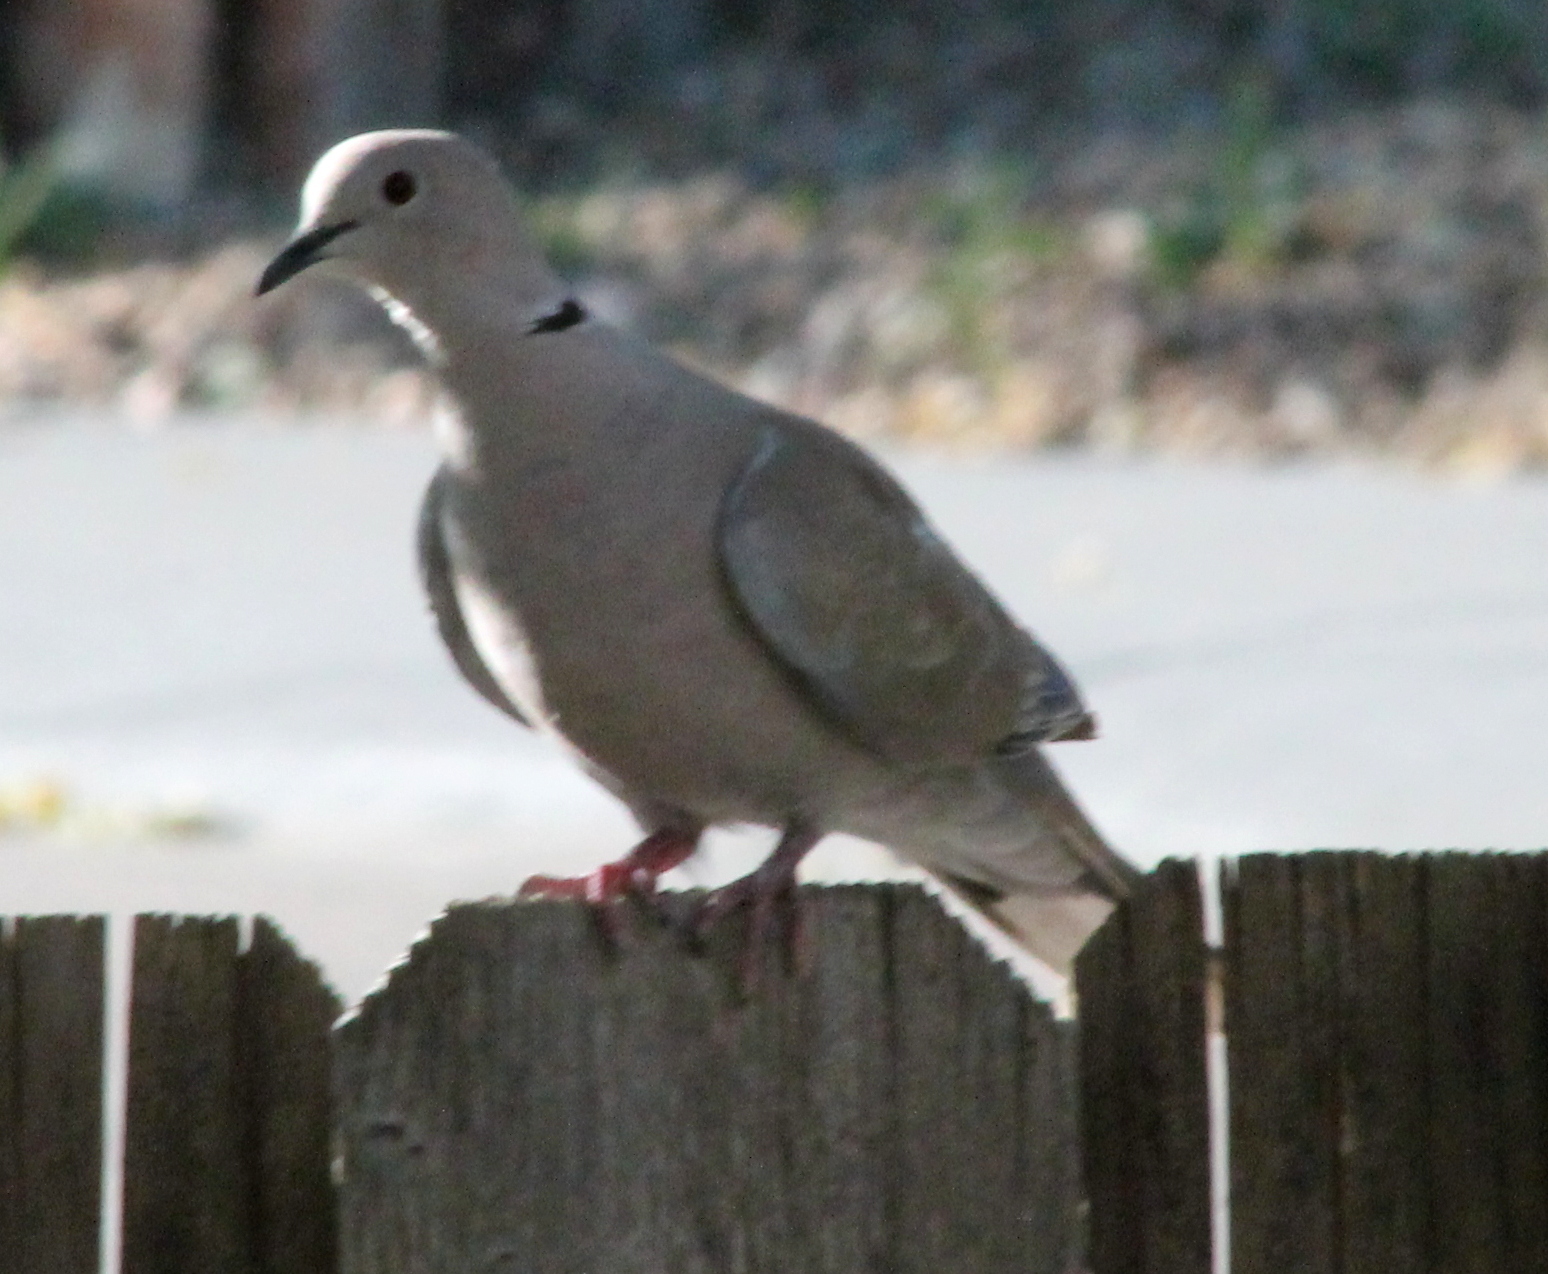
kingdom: Animalia
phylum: Chordata
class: Aves
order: Columbiformes
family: Columbidae
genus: Streptopelia
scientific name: Streptopelia decaocto
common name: Eurasian collared dove
